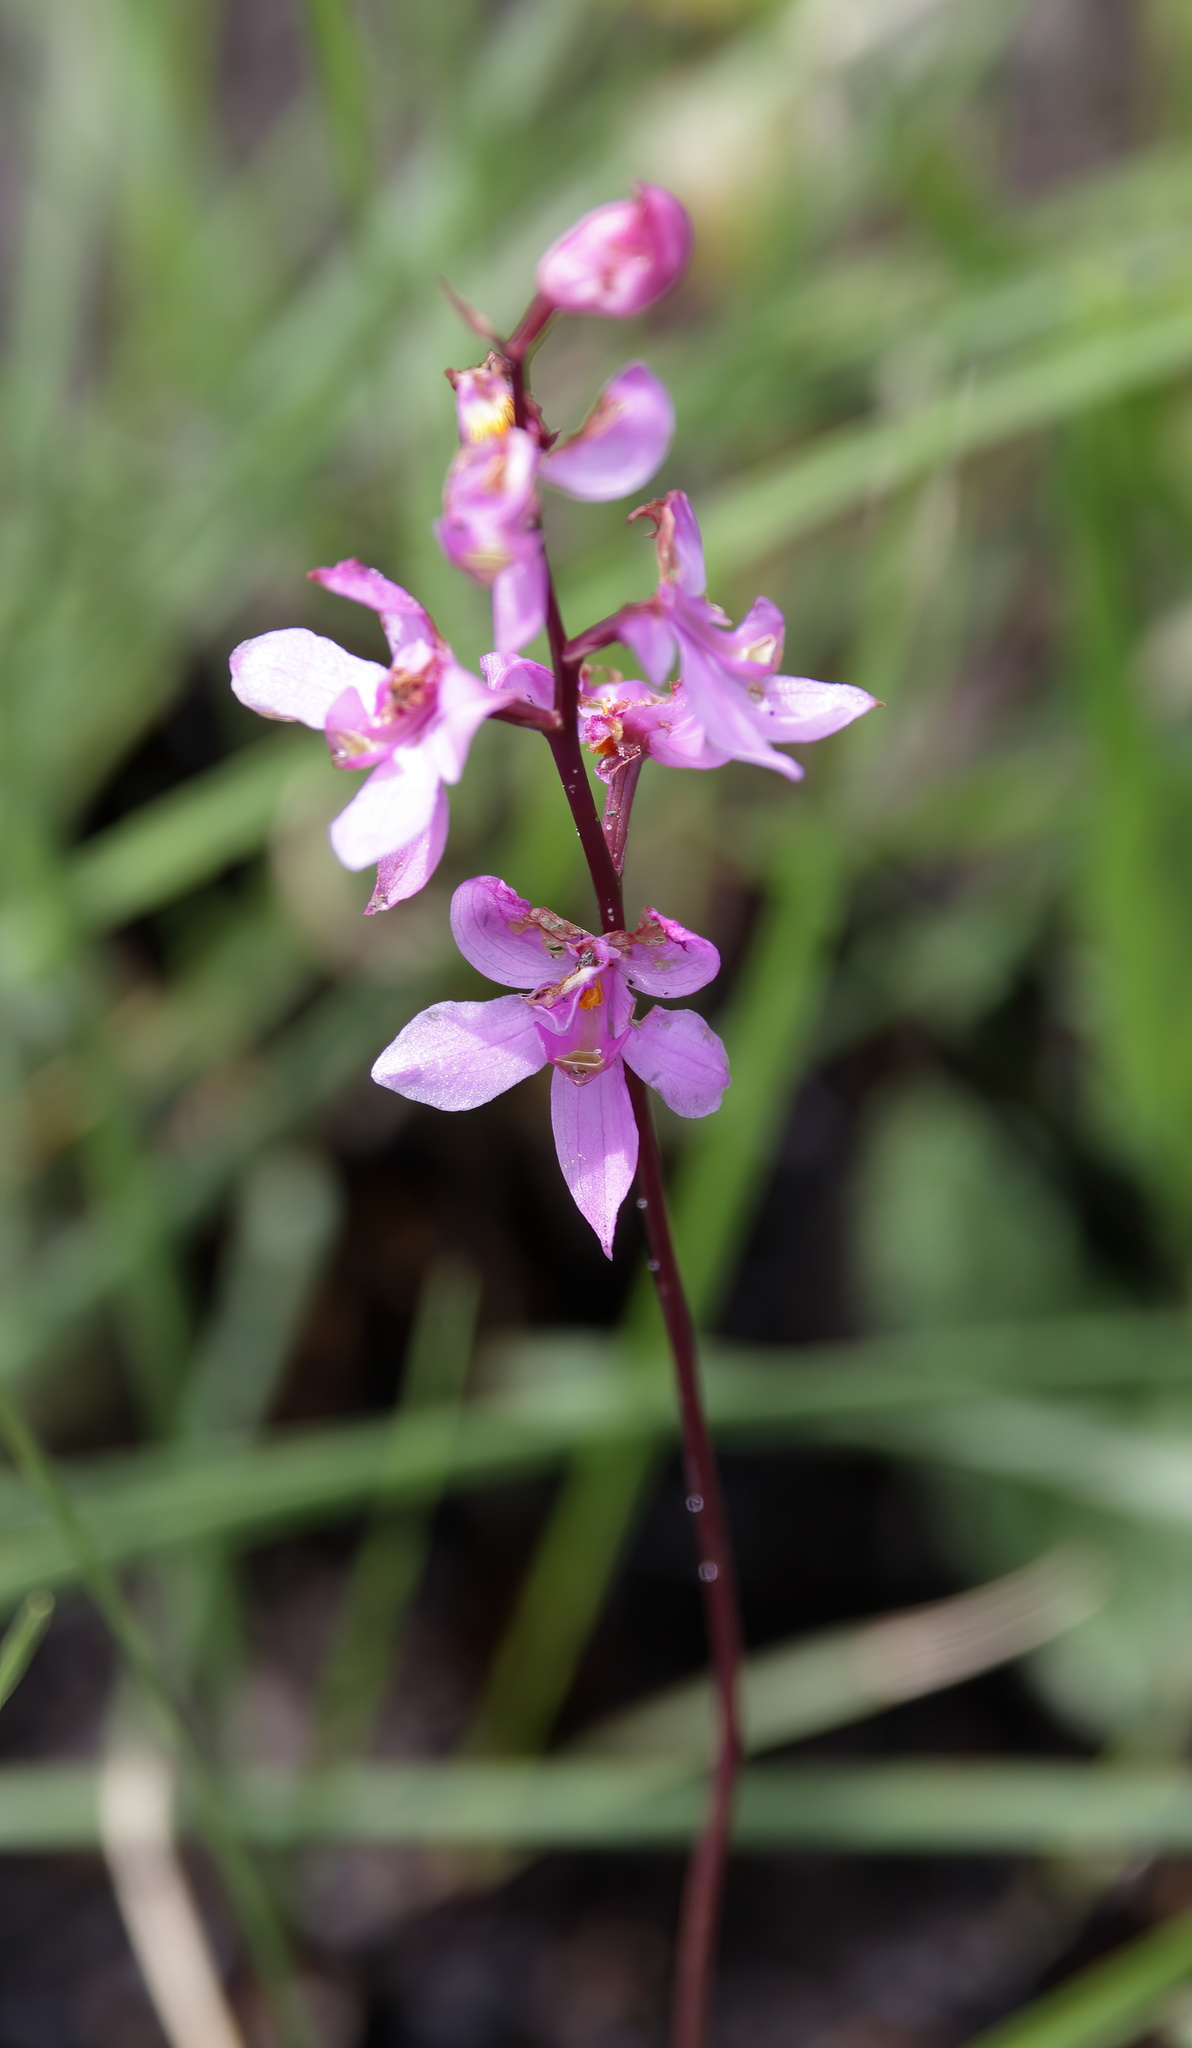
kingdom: Plantae
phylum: Tracheophyta
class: Liliopsida
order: Asparagales
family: Orchidaceae
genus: Calopogon
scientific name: Calopogon multiflorus
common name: Many-flowered grass-pink orchid
